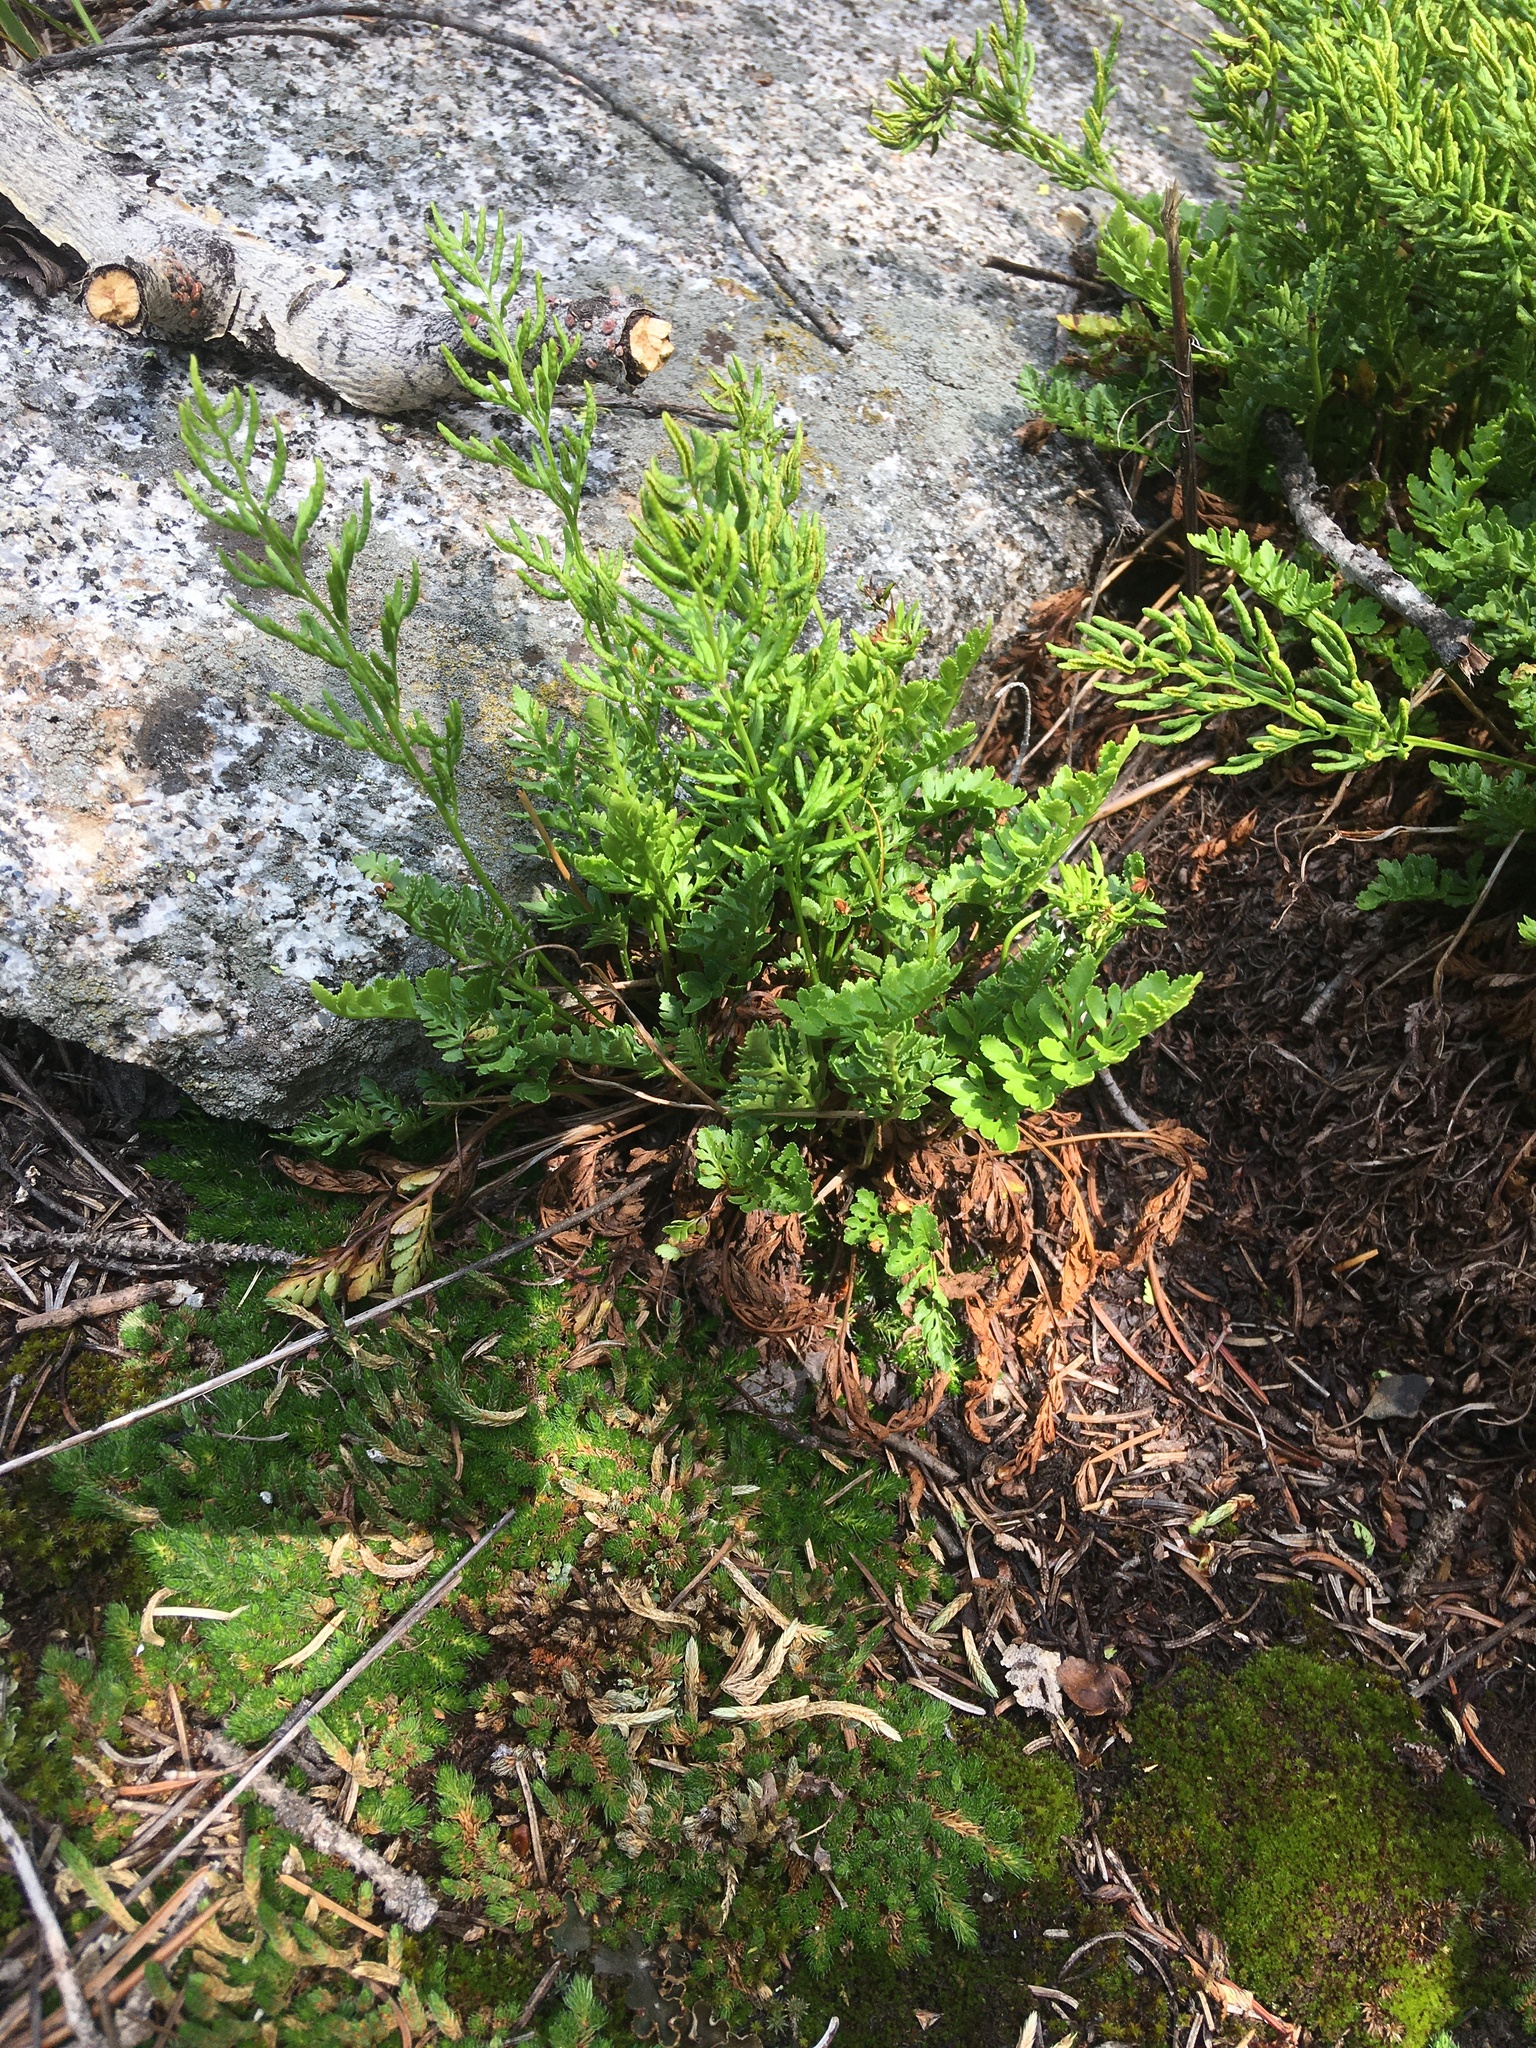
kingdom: Plantae
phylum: Tracheophyta
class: Polypodiopsida
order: Polypodiales
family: Pteridaceae
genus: Cryptogramma
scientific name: Cryptogramma acrostichoides
